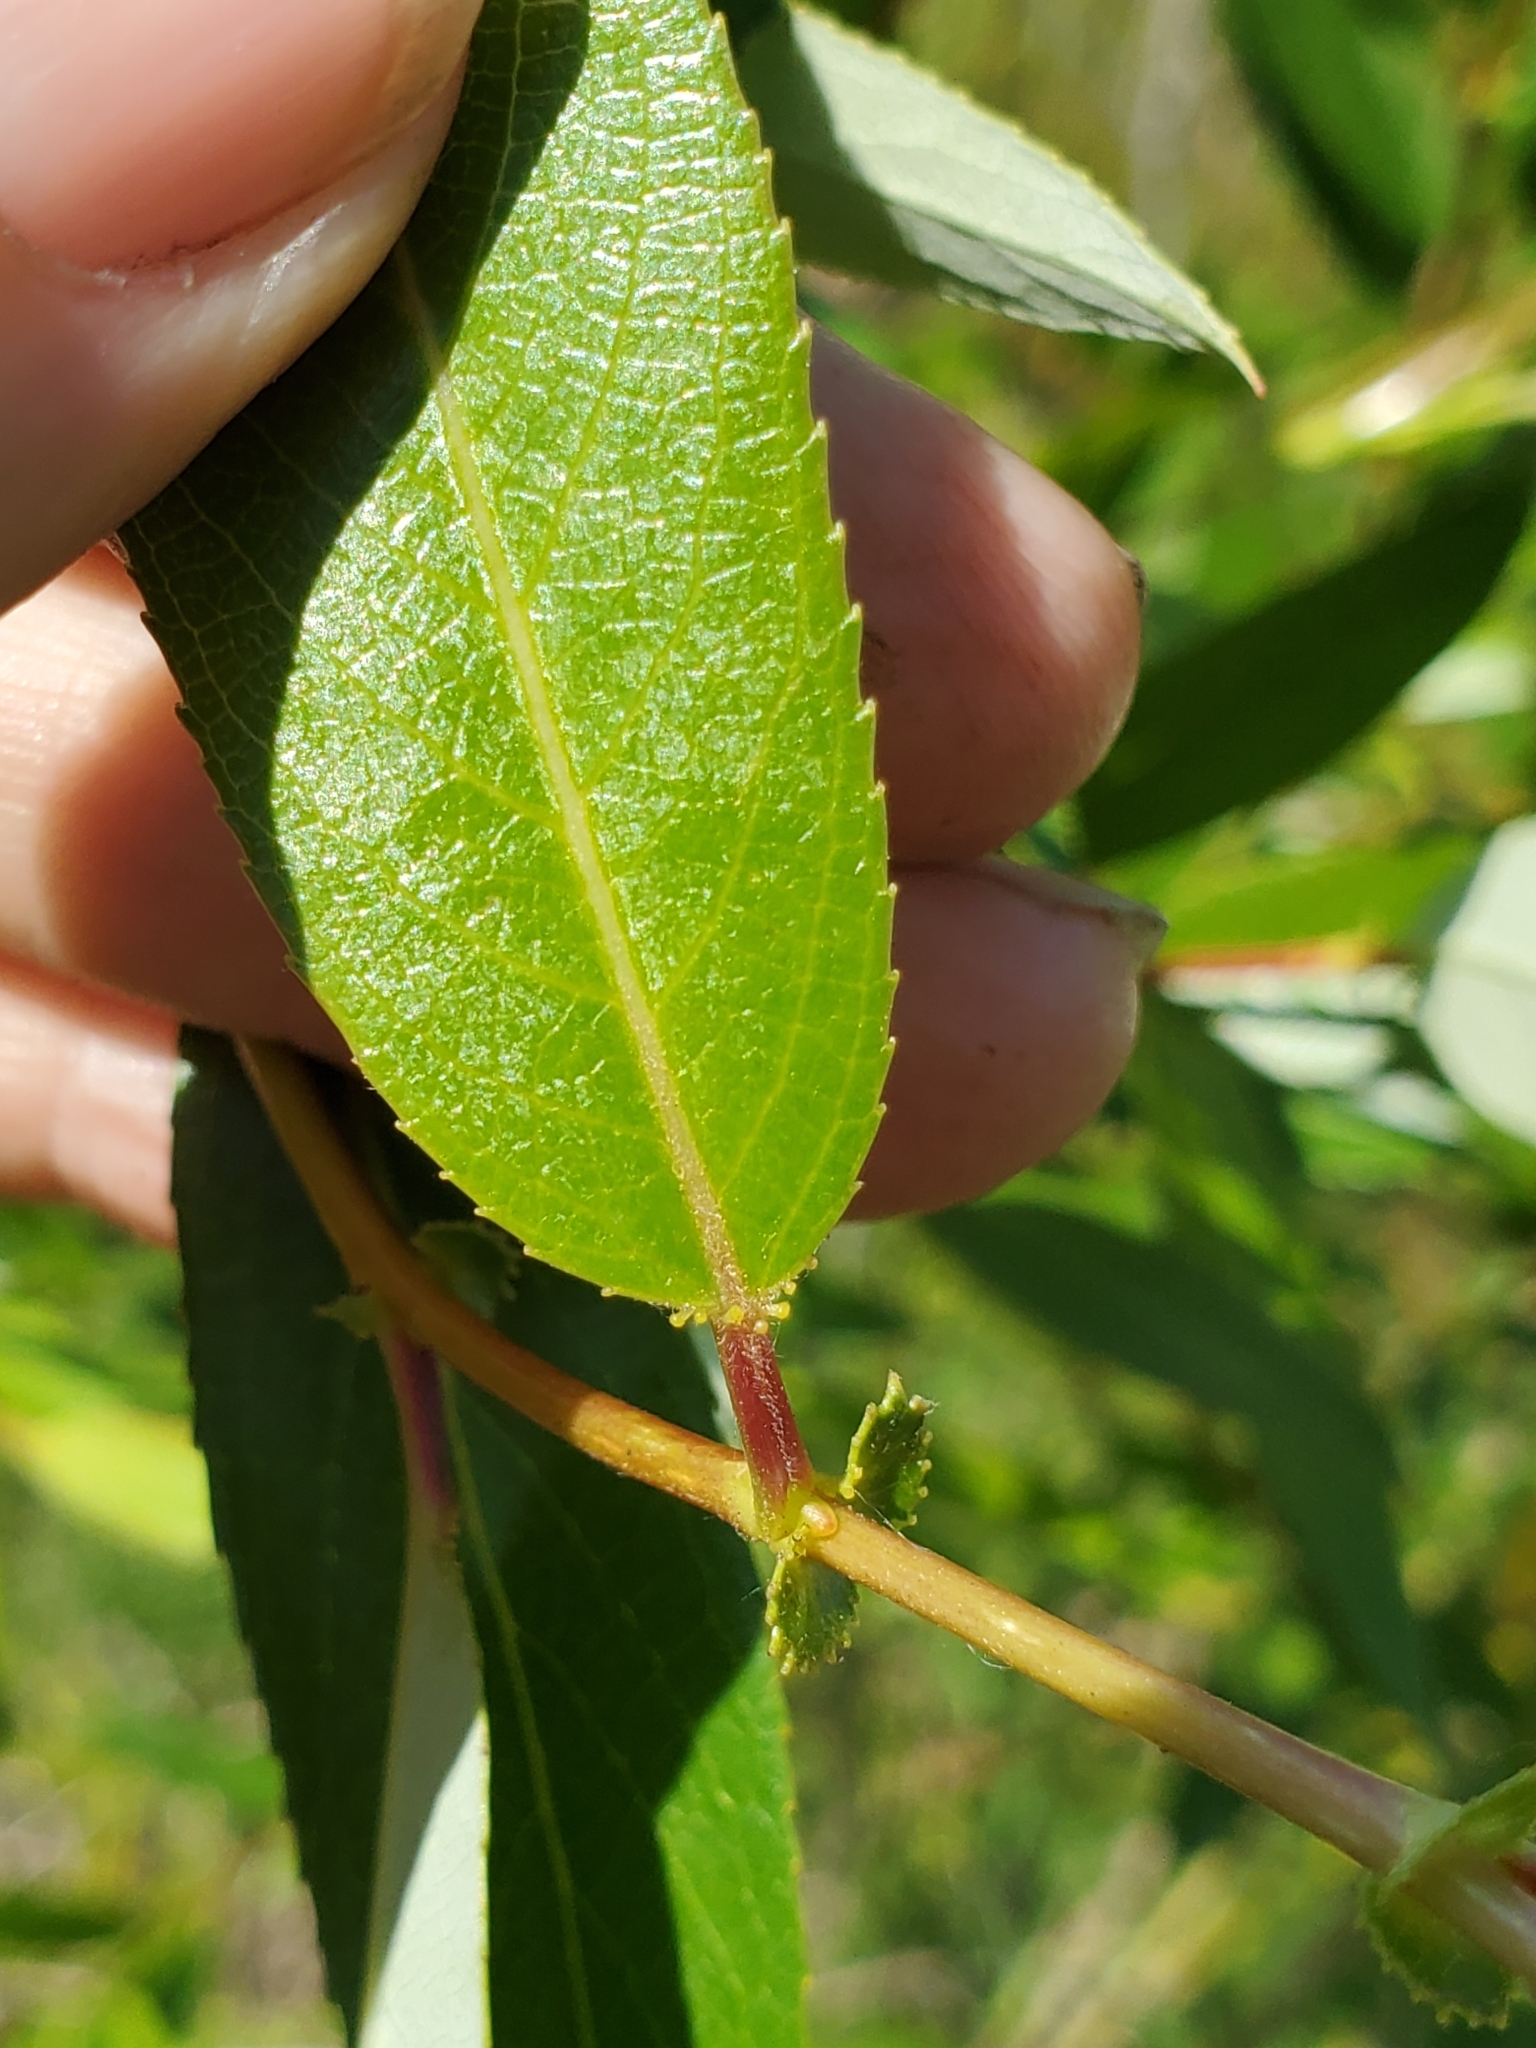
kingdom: Plantae
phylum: Tracheophyta
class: Magnoliopsida
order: Malpighiales
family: Salicaceae
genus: Salix
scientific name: Salix lucida
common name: Shining willow
